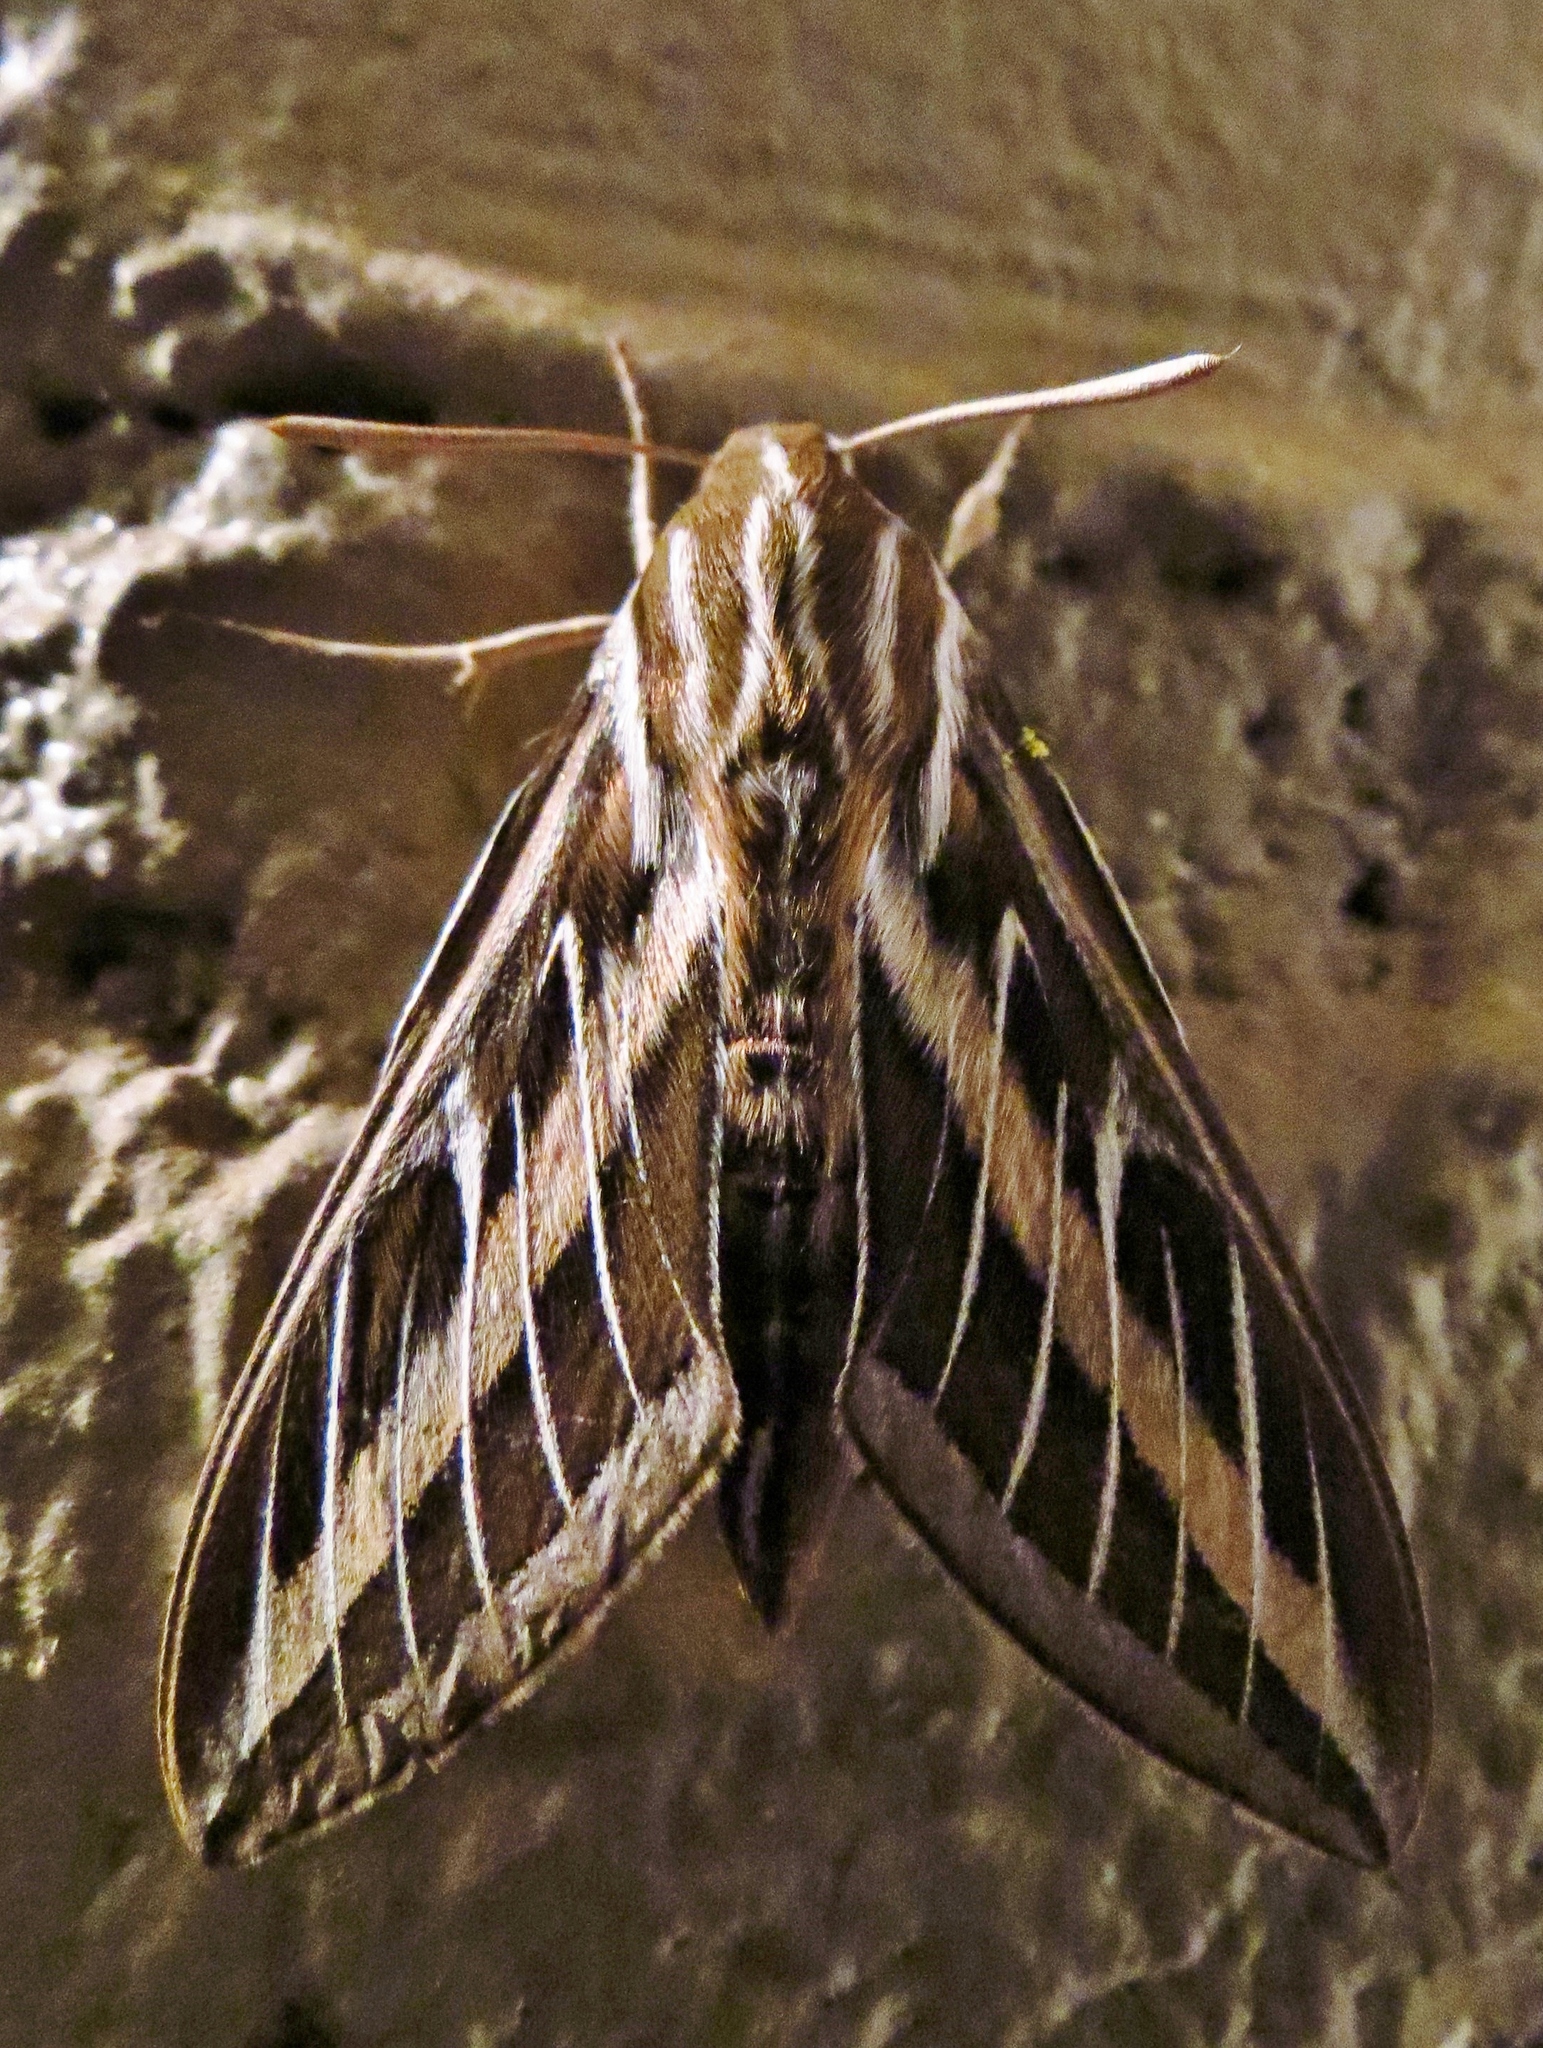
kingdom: Animalia
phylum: Arthropoda
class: Insecta
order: Lepidoptera
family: Sphingidae
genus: Hyles
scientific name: Hyles lineata
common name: White-lined sphinx
